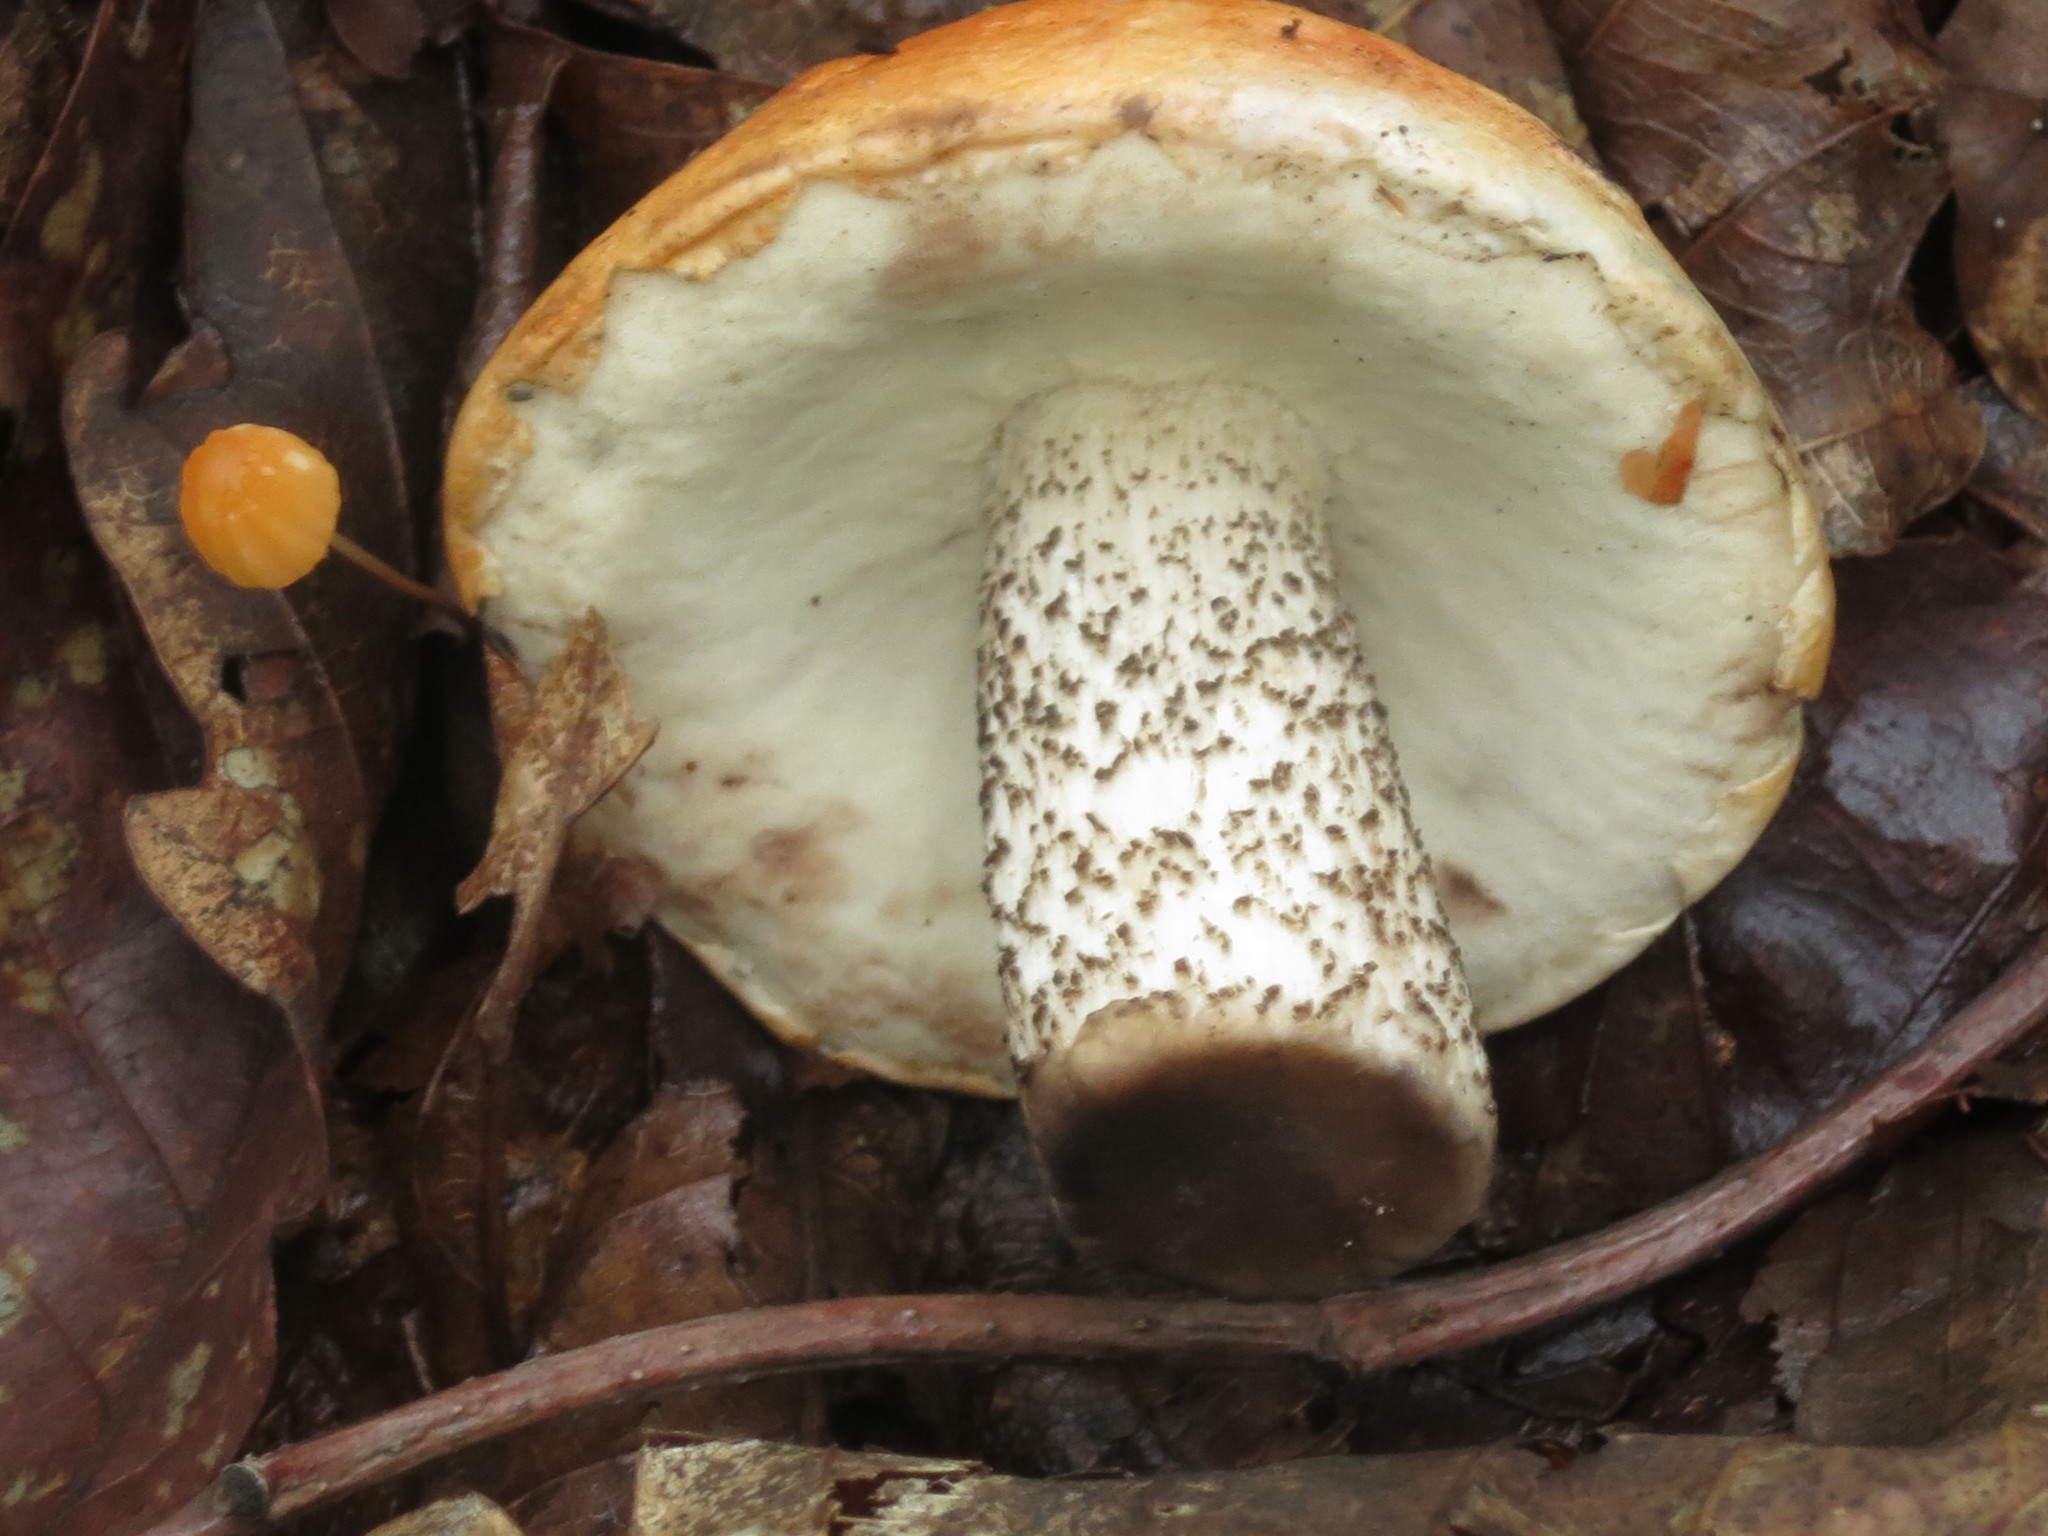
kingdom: Fungi
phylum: Basidiomycota
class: Agaricomycetes
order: Boletales
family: Boletaceae
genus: Leccinum
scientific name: Leccinum versipelle
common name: Orange birch bolete
